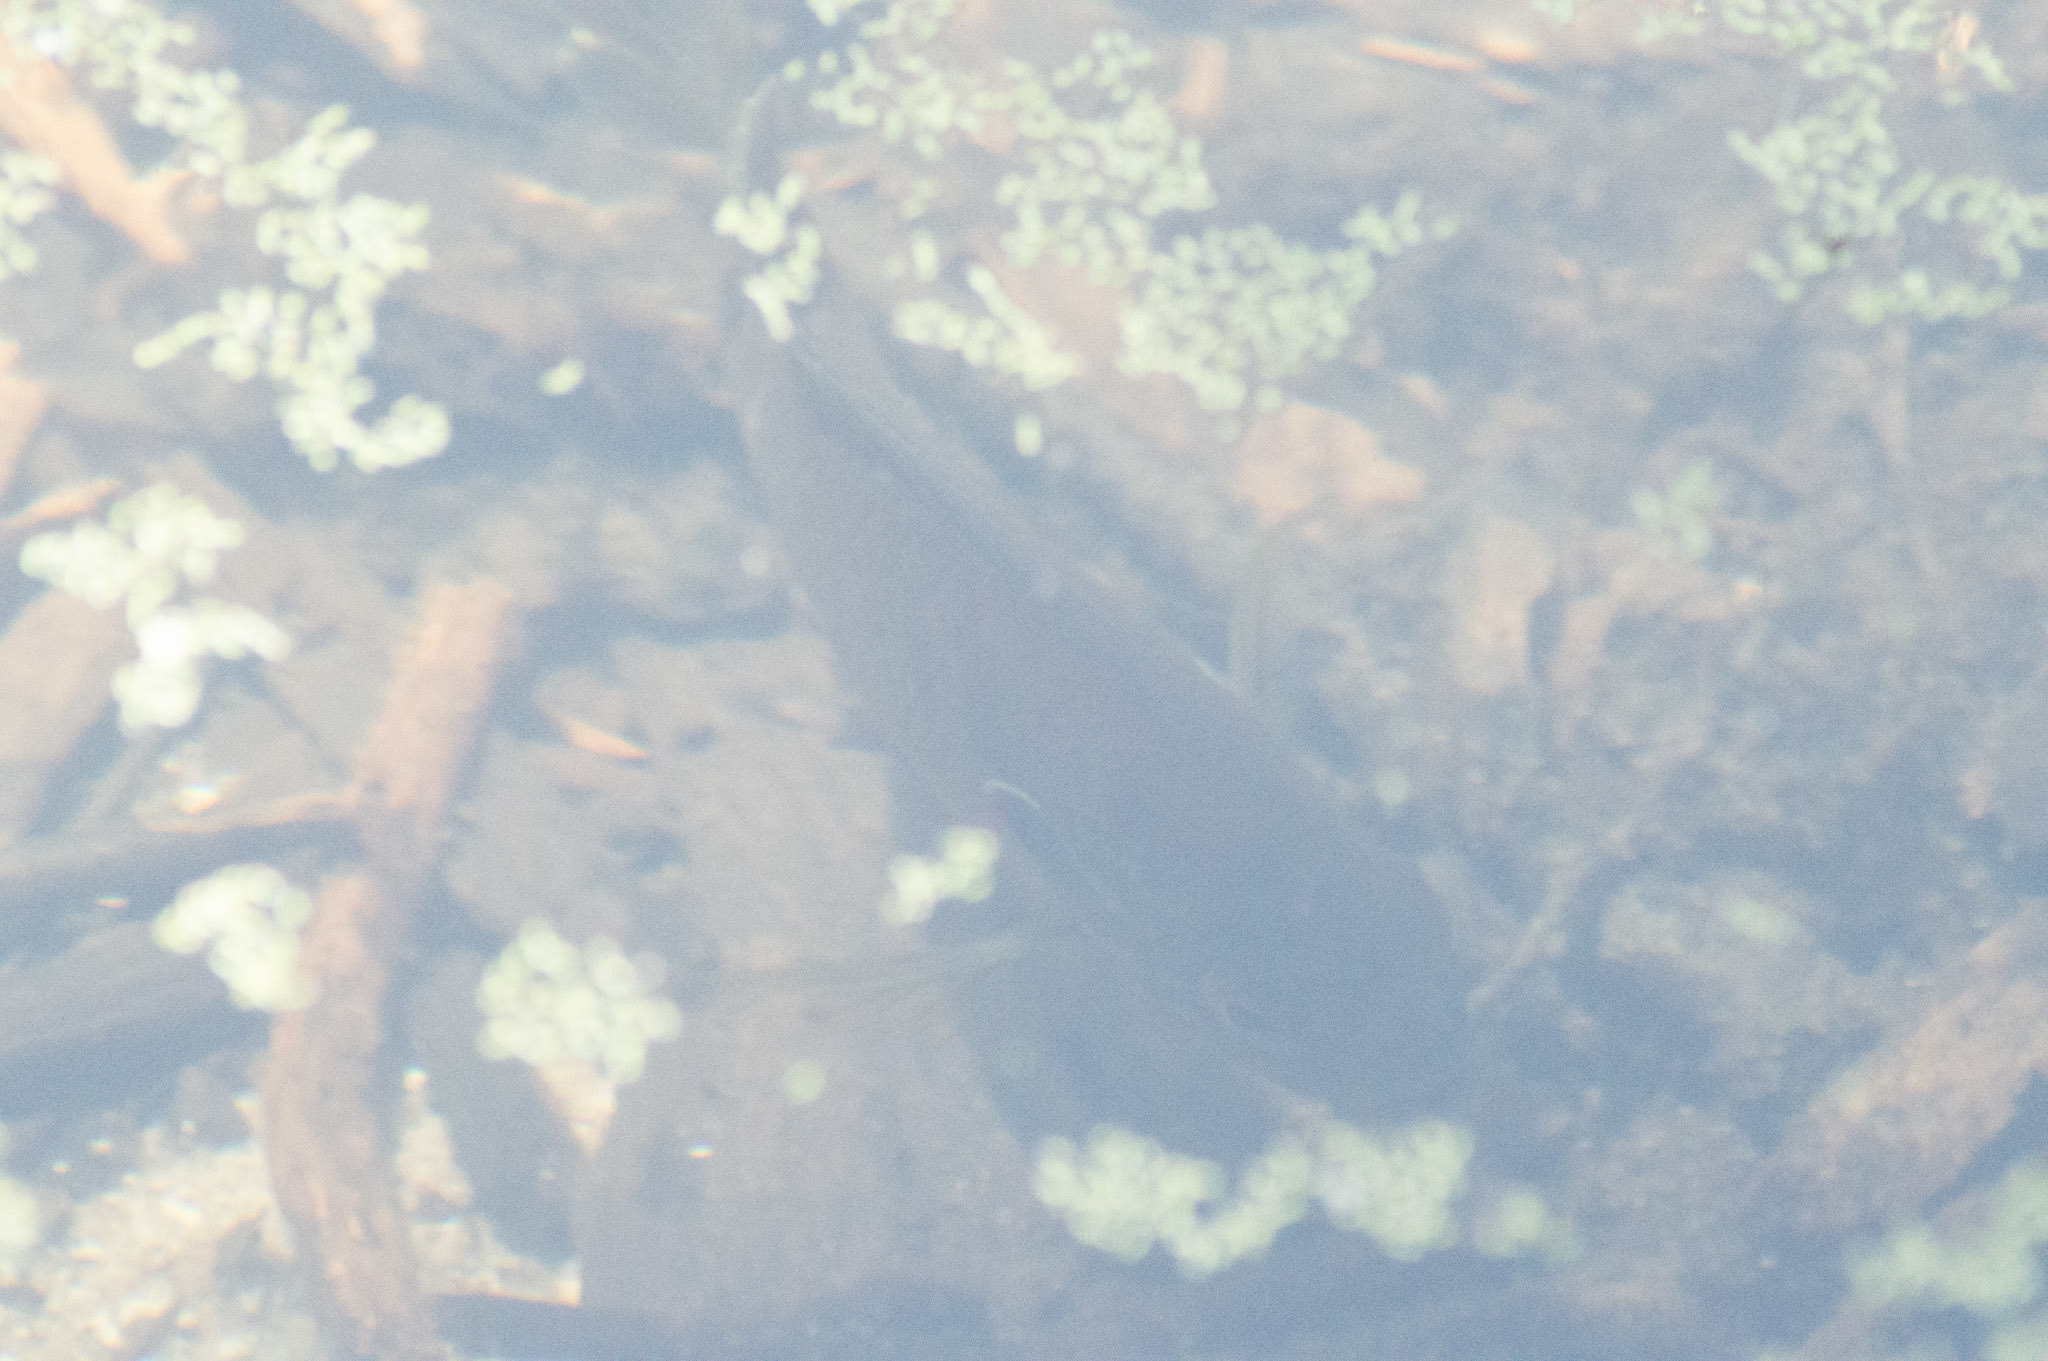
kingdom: Animalia
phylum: Chordata
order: Perciformes
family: Centrarchidae
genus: Lepomis
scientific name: Lepomis gibbosus
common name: Pumpkinseed
